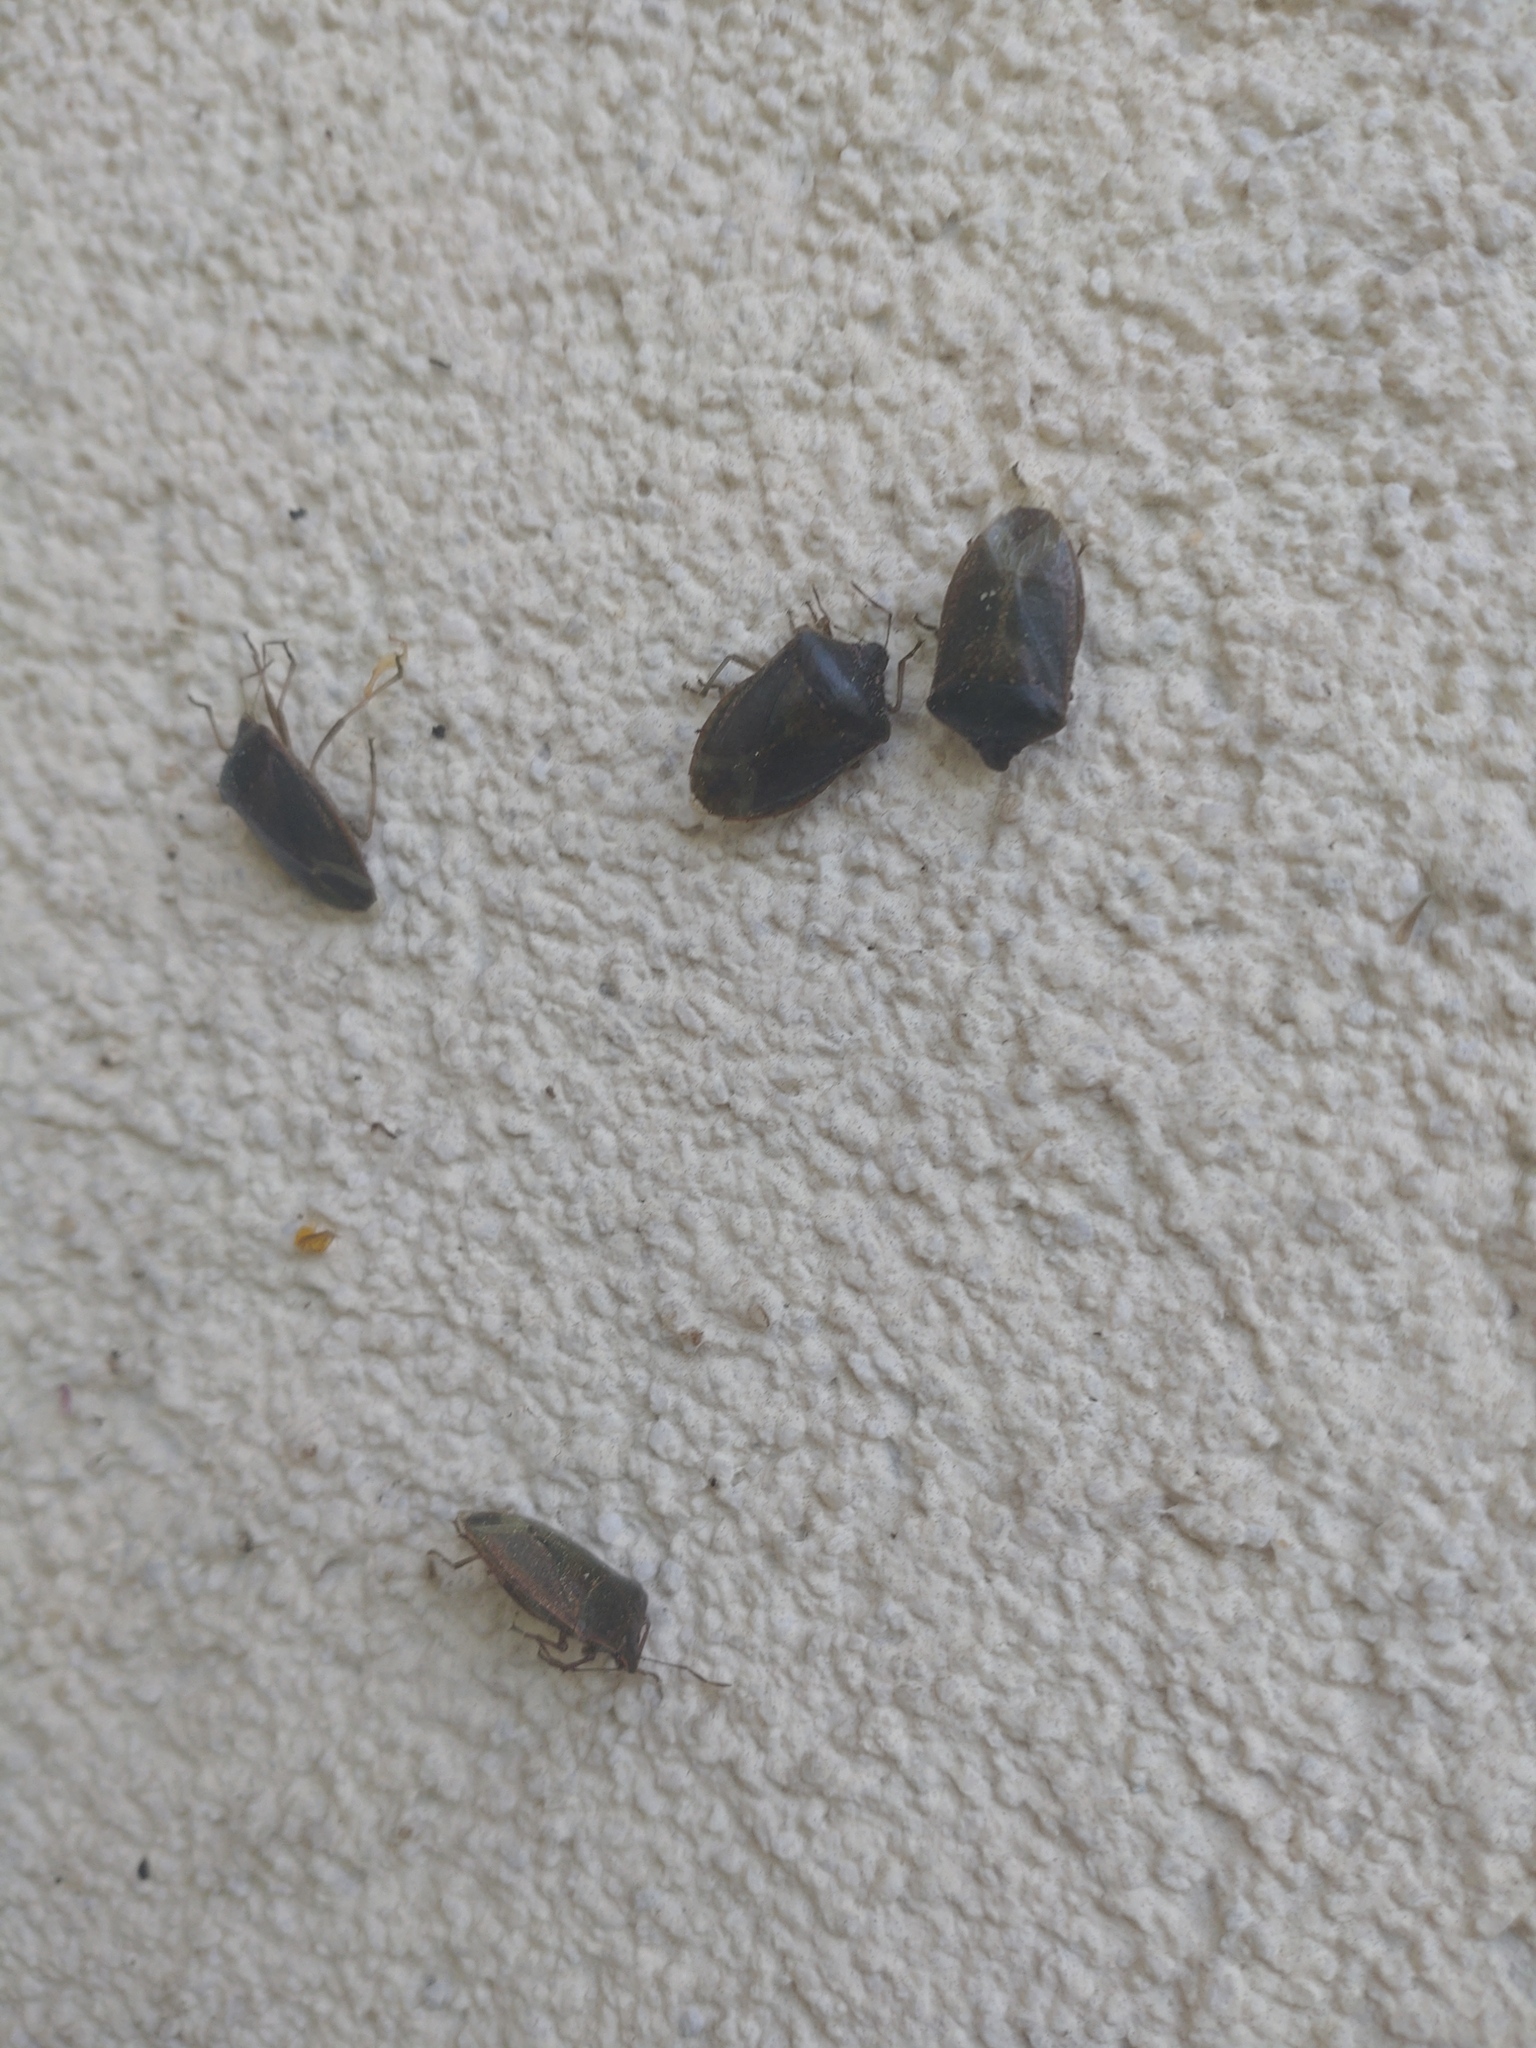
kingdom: Animalia
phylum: Arthropoda
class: Insecta
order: Hemiptera
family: Pentatomidae
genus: Nezara
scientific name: Nezara viridula
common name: Southern green stink bug
